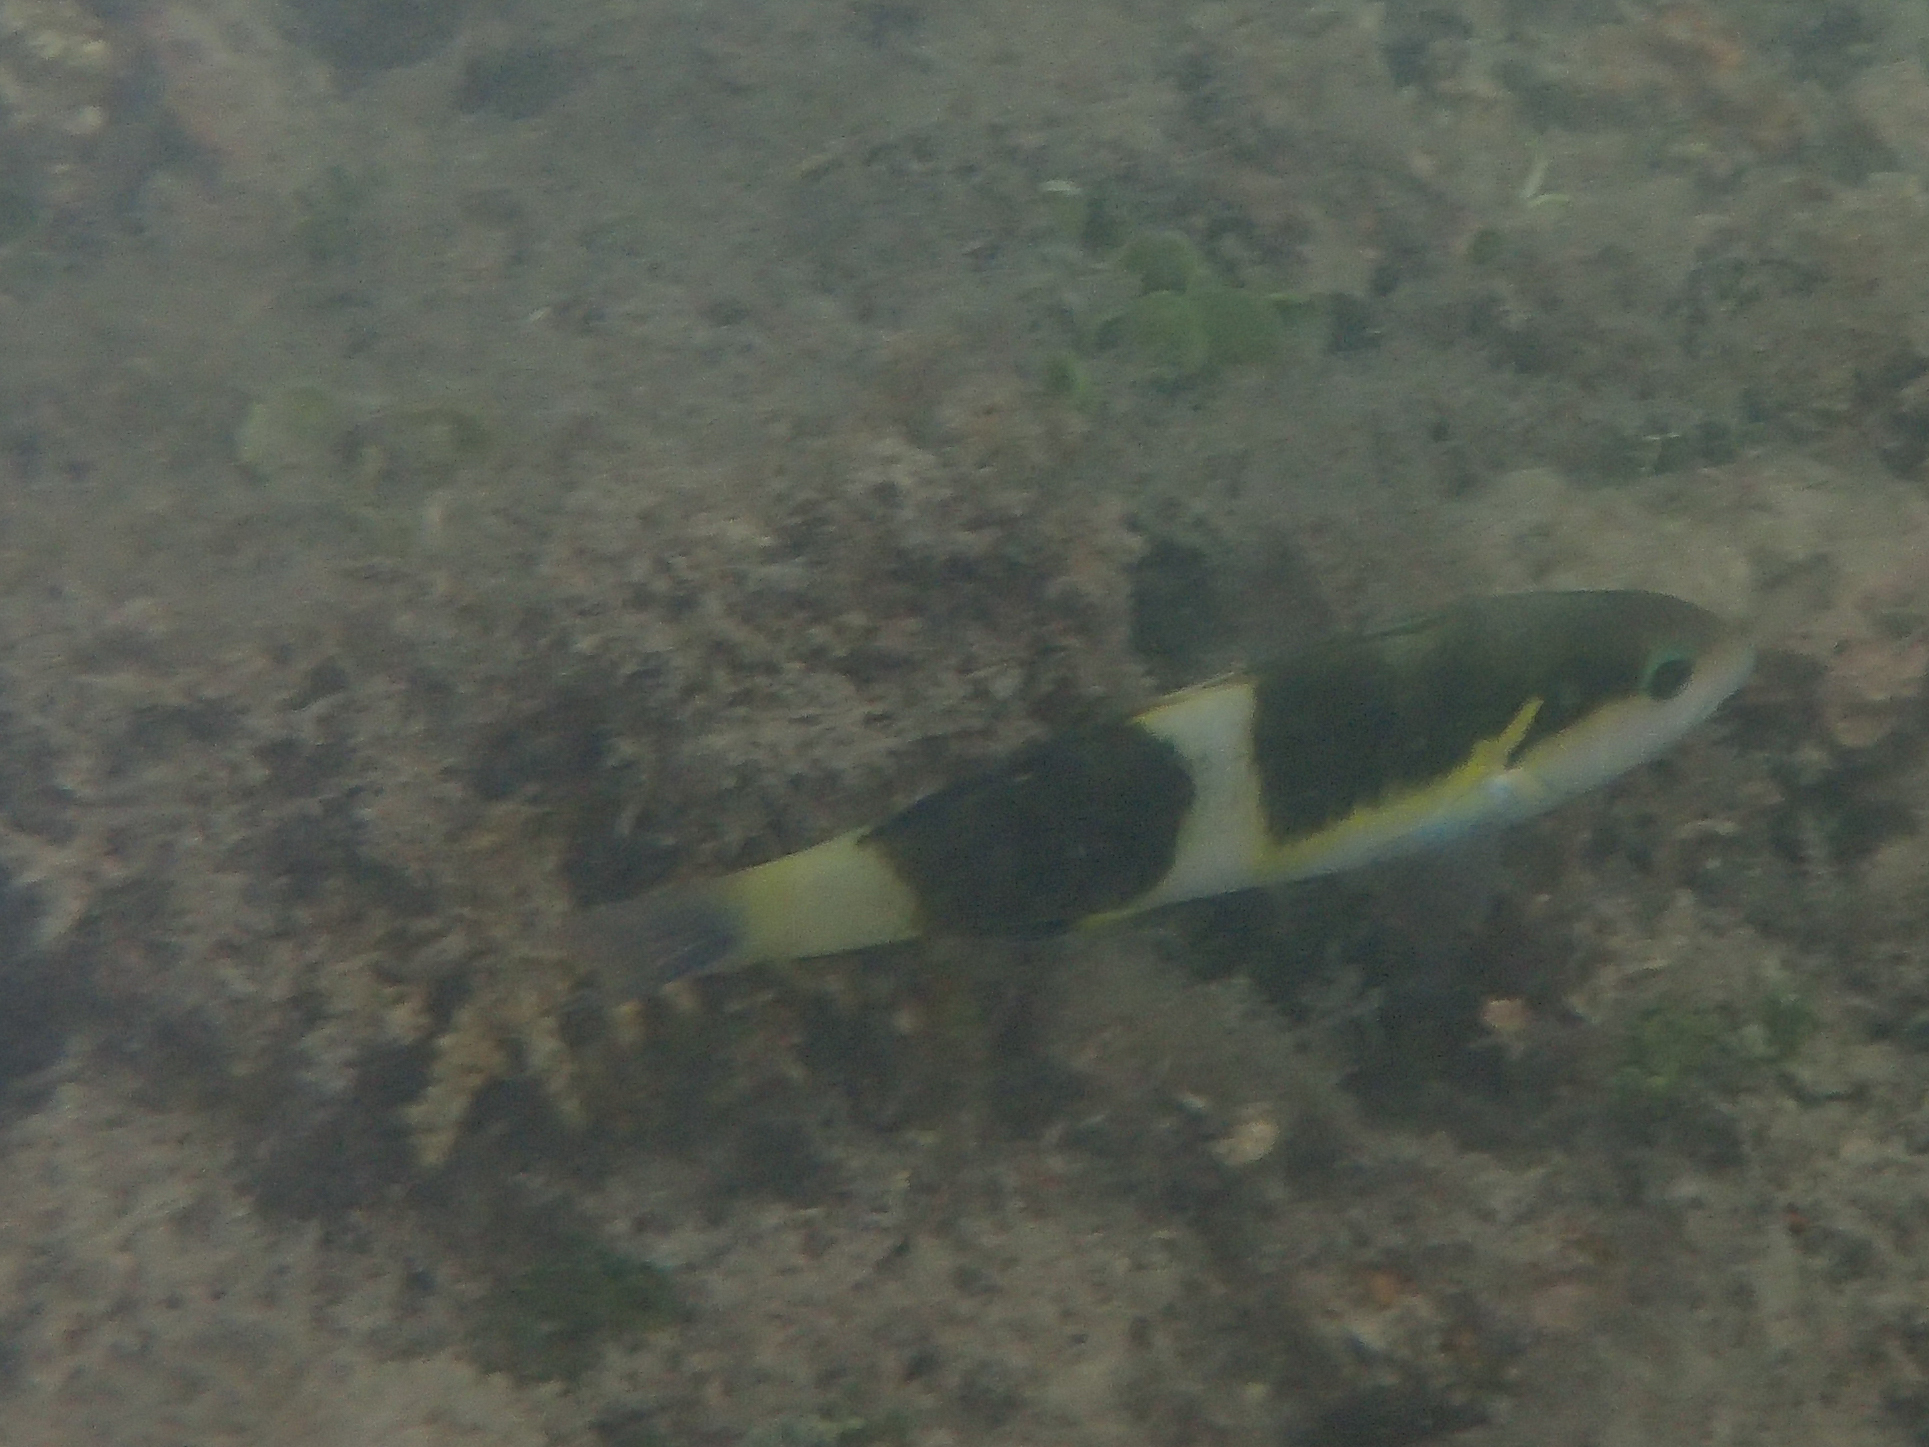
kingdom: Animalia
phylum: Chordata
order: Perciformes
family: Labridae
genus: Thalassoma
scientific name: Thalassoma nigrofasciatum
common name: Black-barred wrasse
